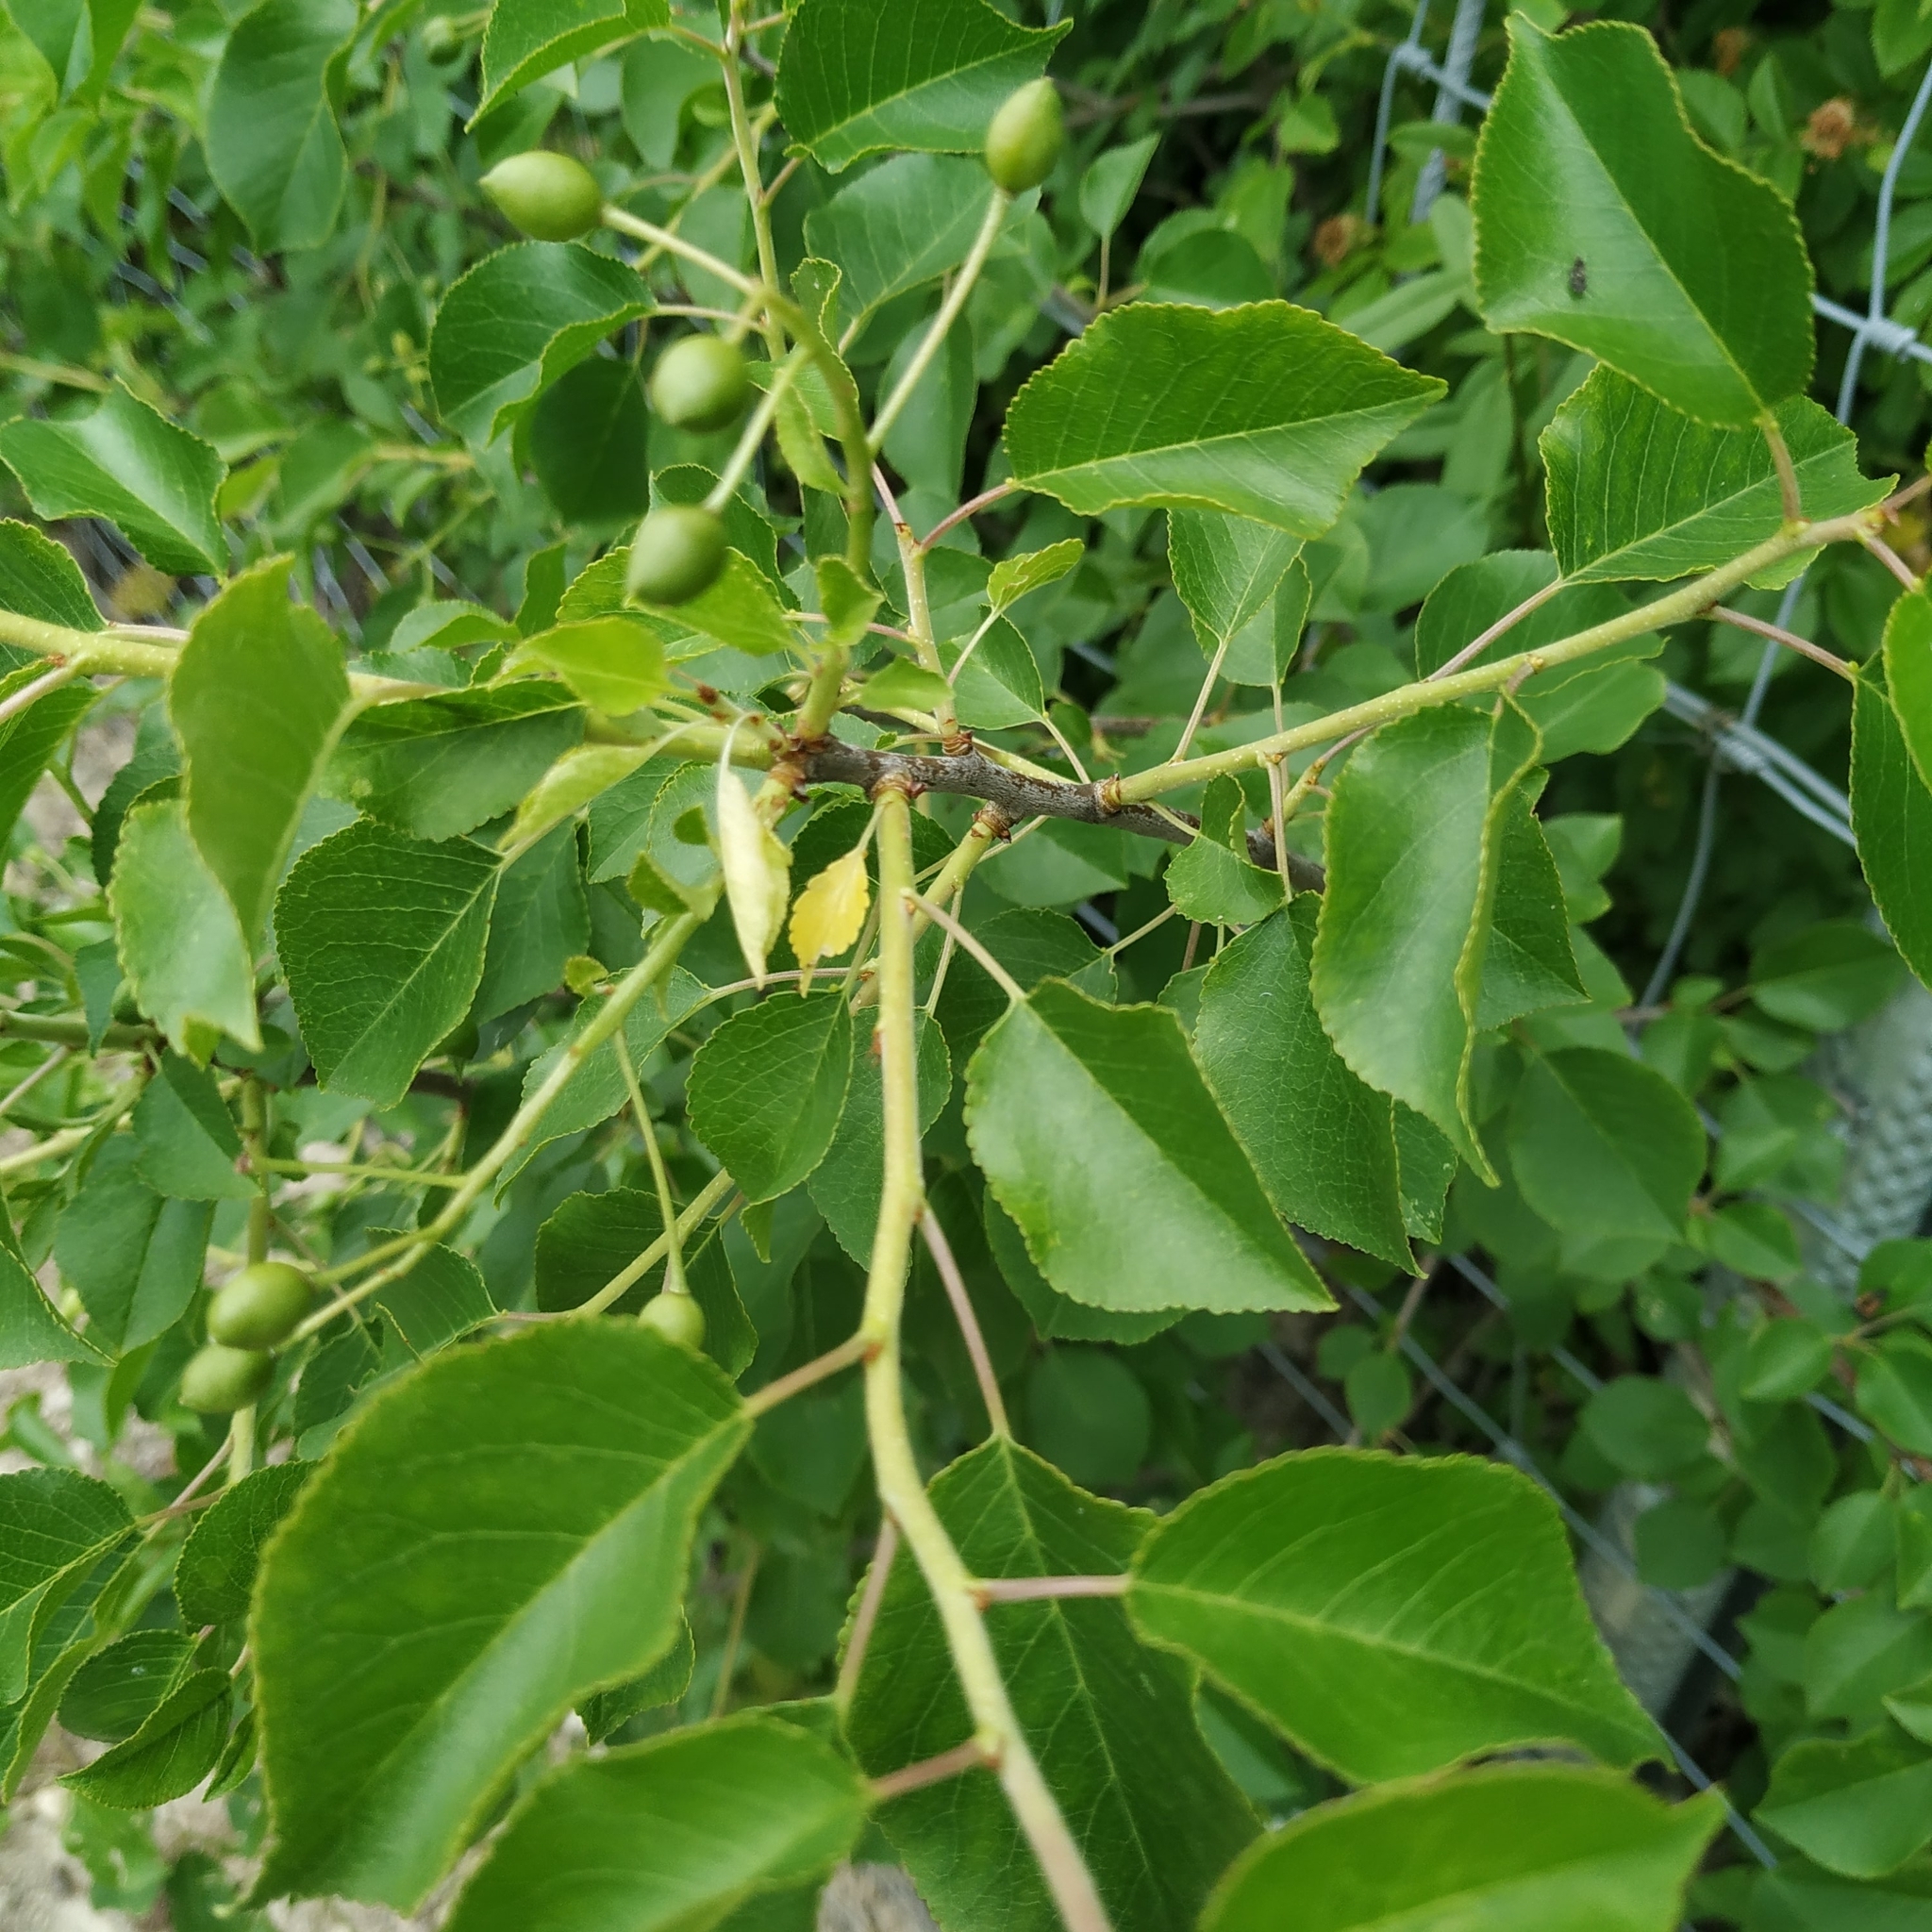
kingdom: Plantae
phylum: Tracheophyta
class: Magnoliopsida
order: Rosales
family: Rosaceae
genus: Prunus
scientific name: Prunus mahaleb
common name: Mahaleb cherry
